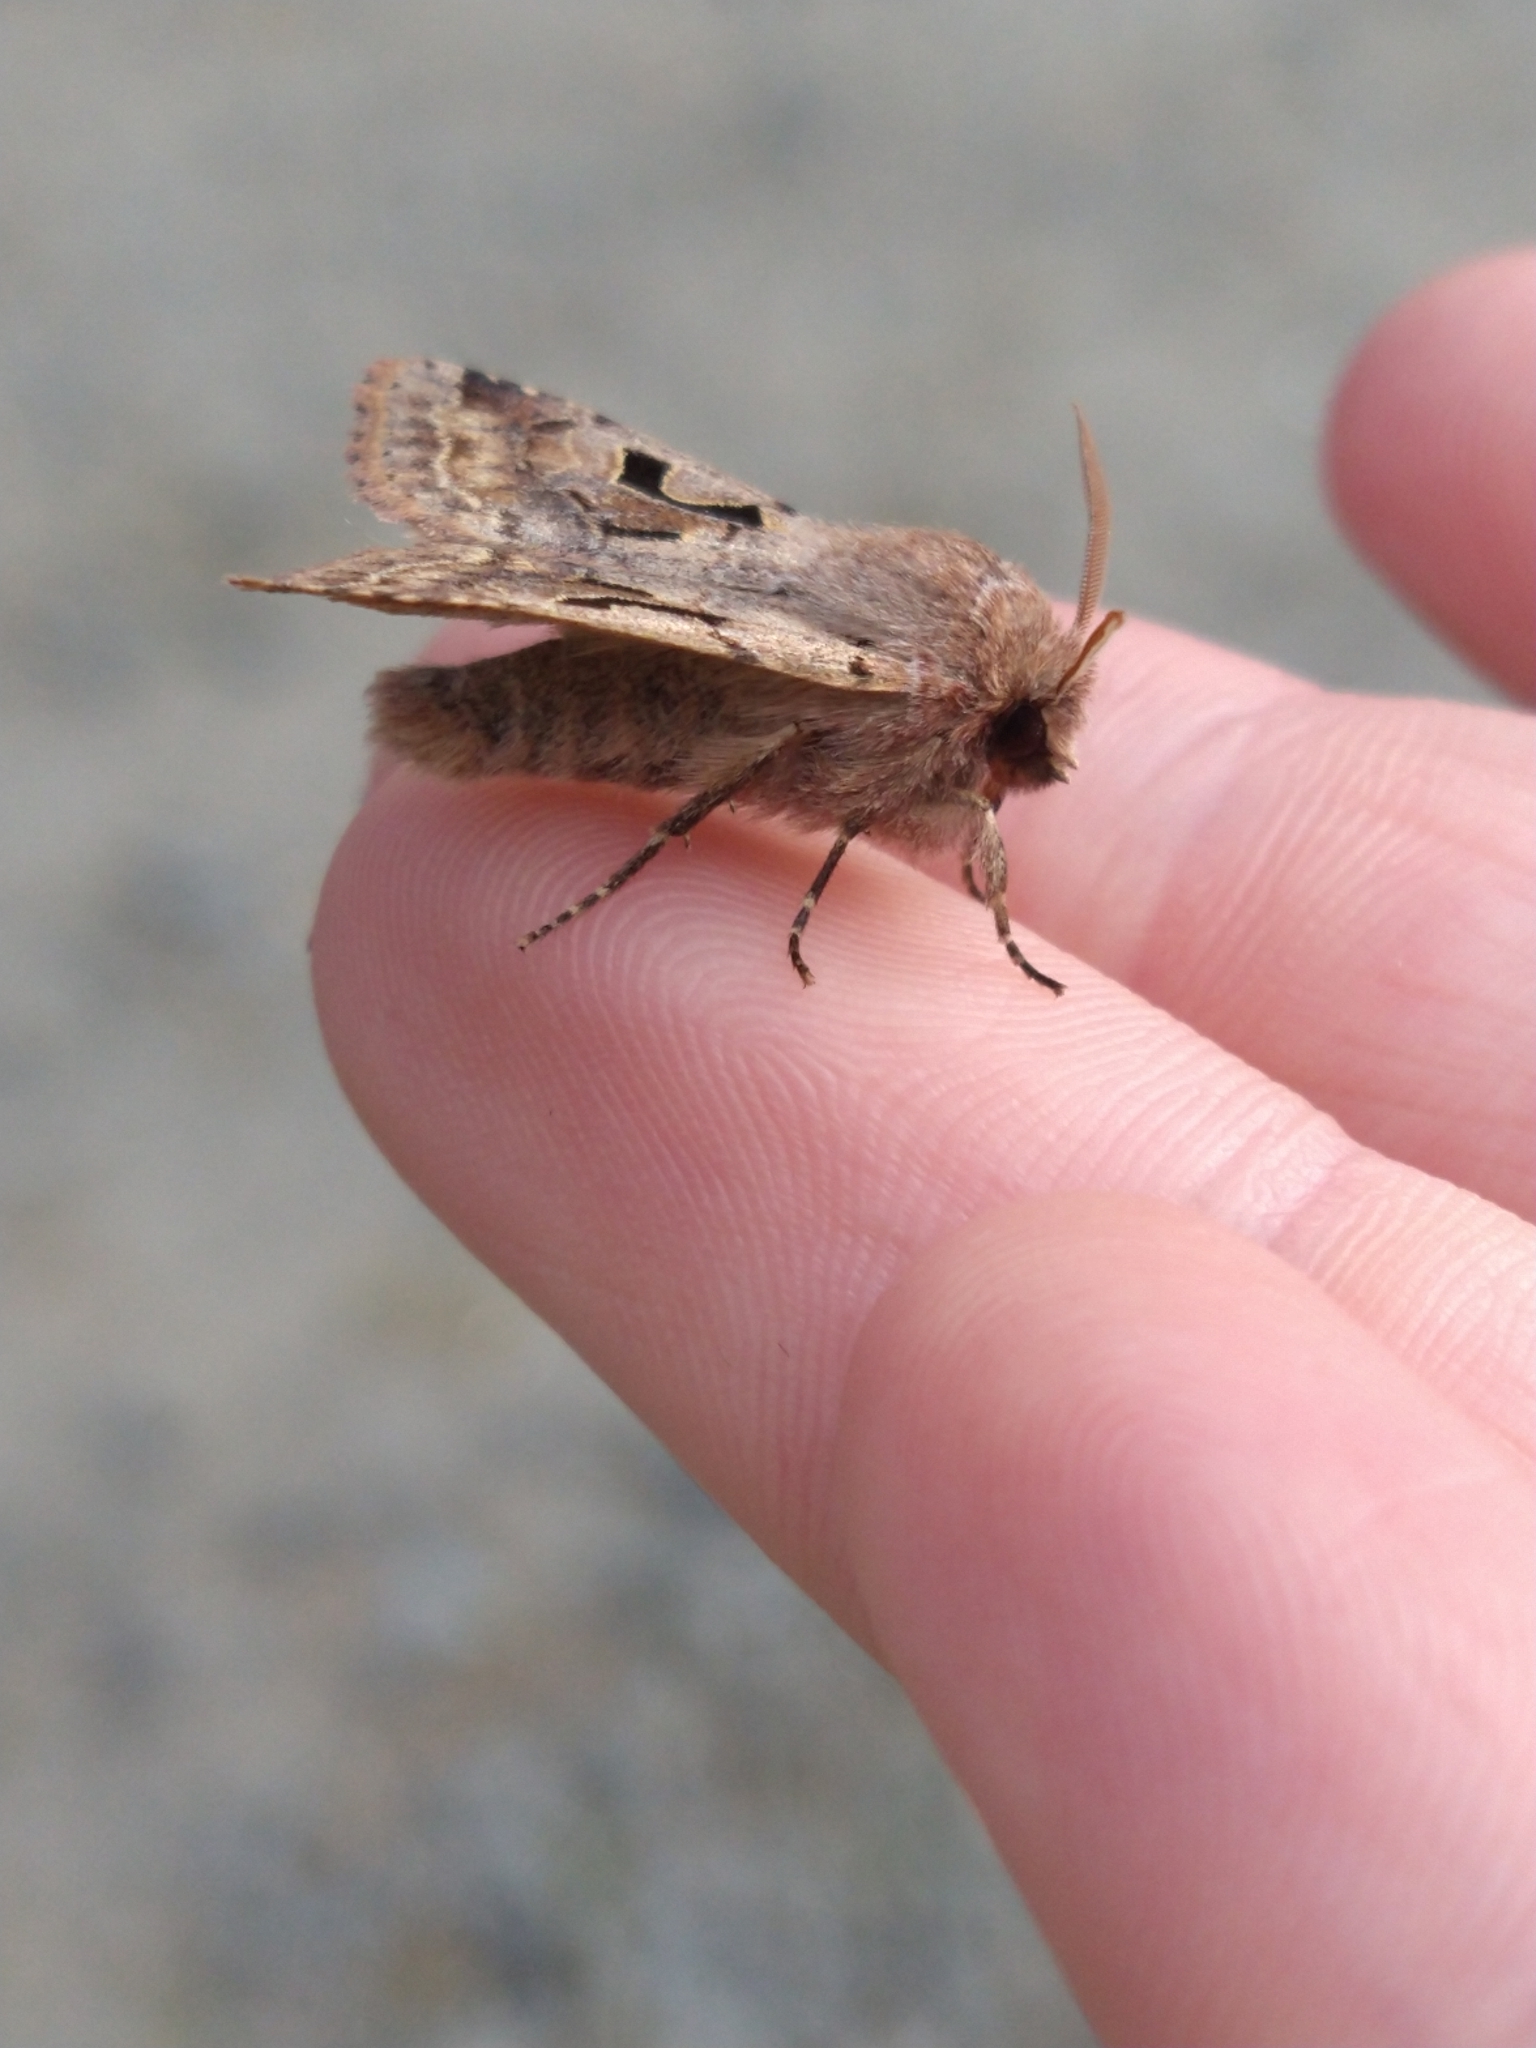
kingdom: Animalia
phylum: Arthropoda
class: Insecta
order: Lepidoptera
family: Noctuidae
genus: Orthosia
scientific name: Orthosia gothica
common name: Hebrew character
